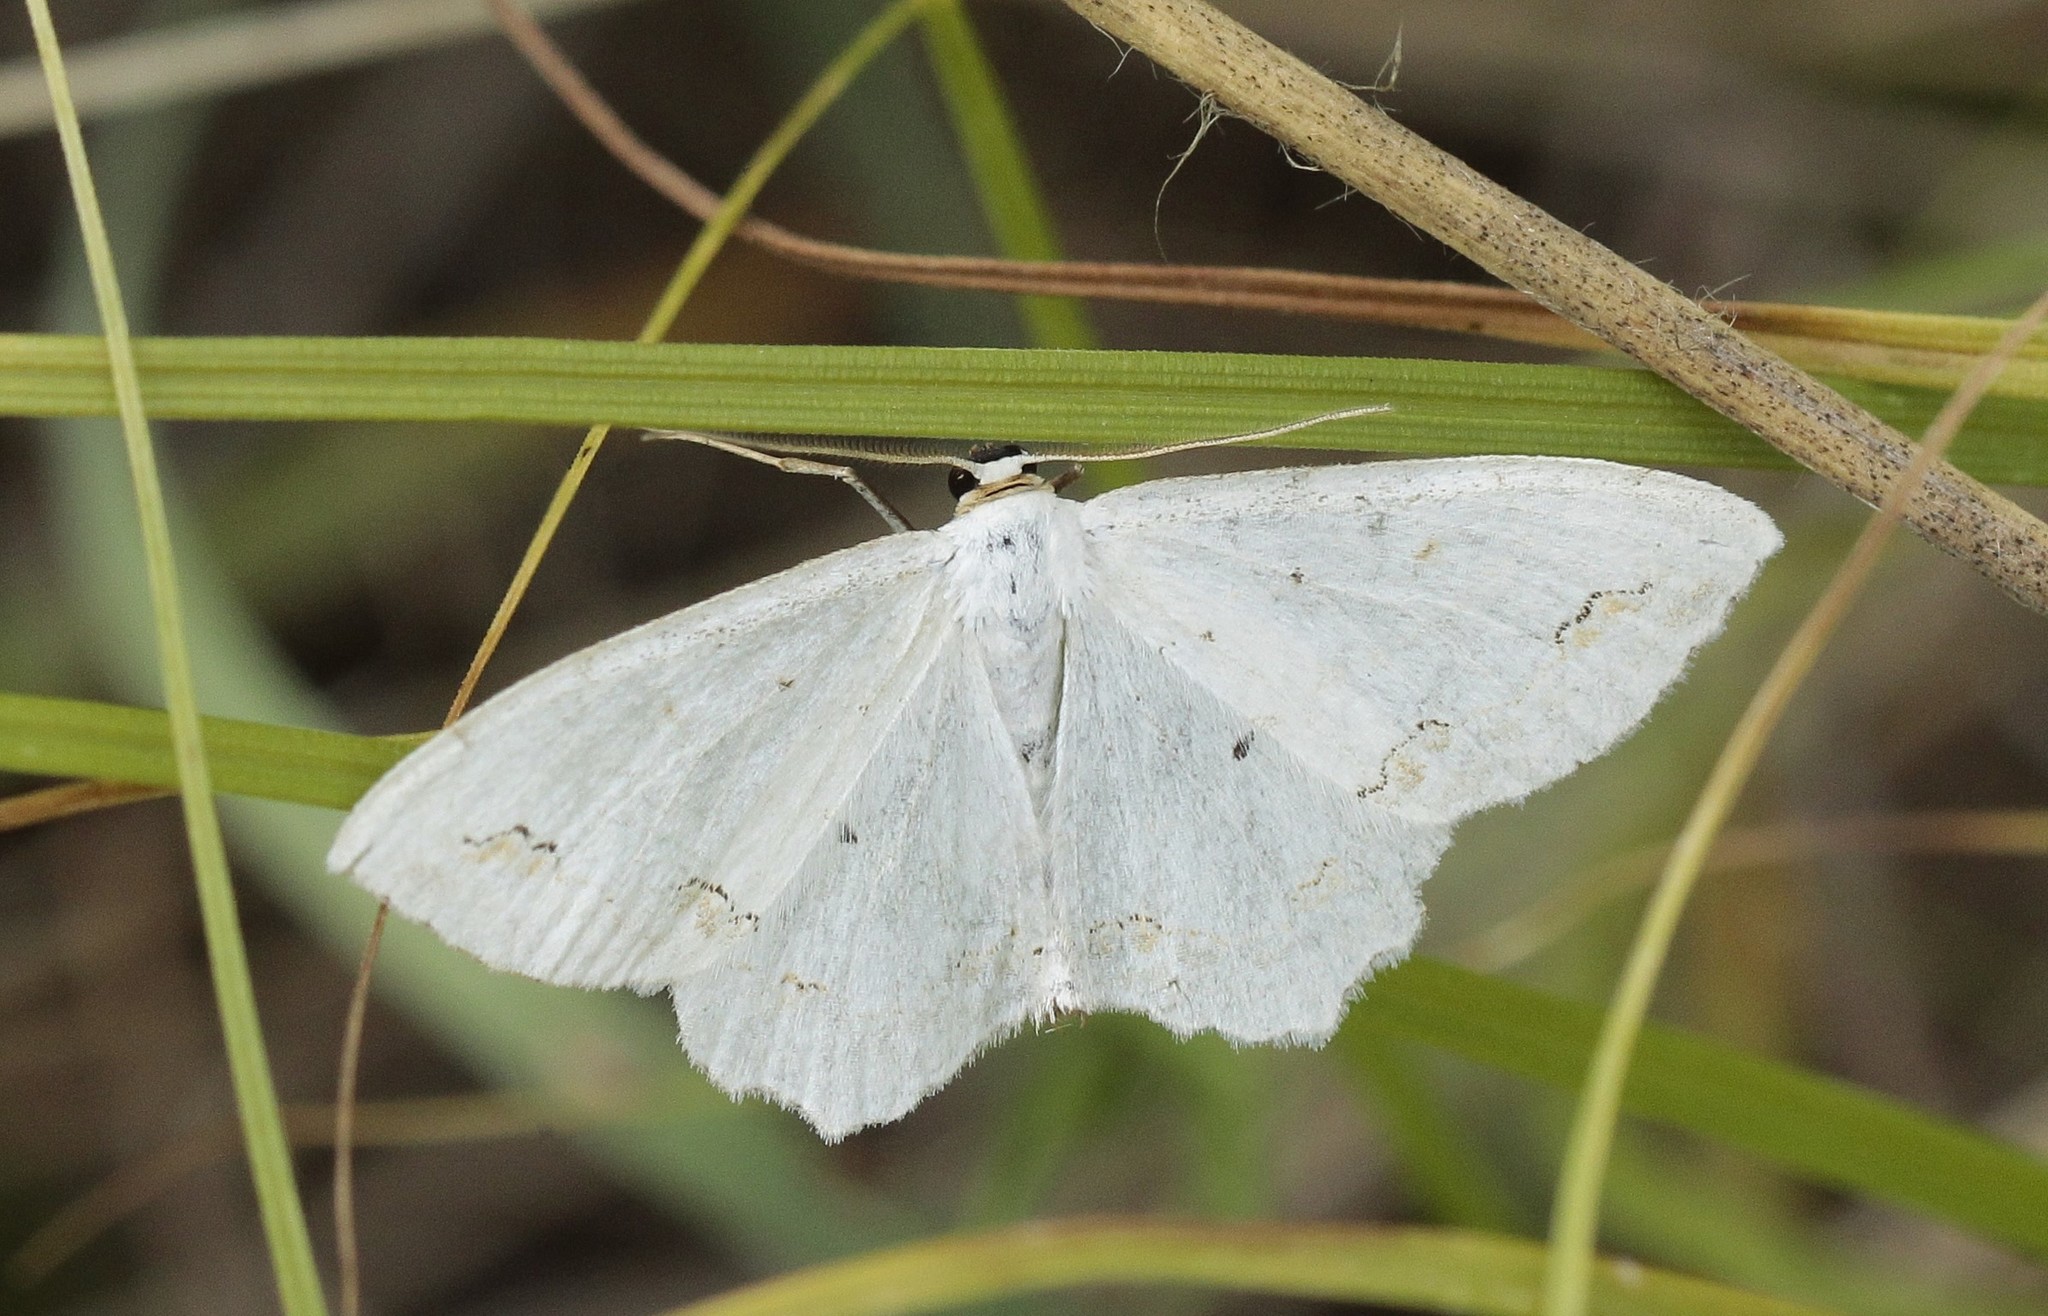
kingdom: Animalia
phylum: Arthropoda
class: Insecta
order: Lepidoptera
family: Geometridae
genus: Scopula
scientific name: Scopula ornata
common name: Lace border
